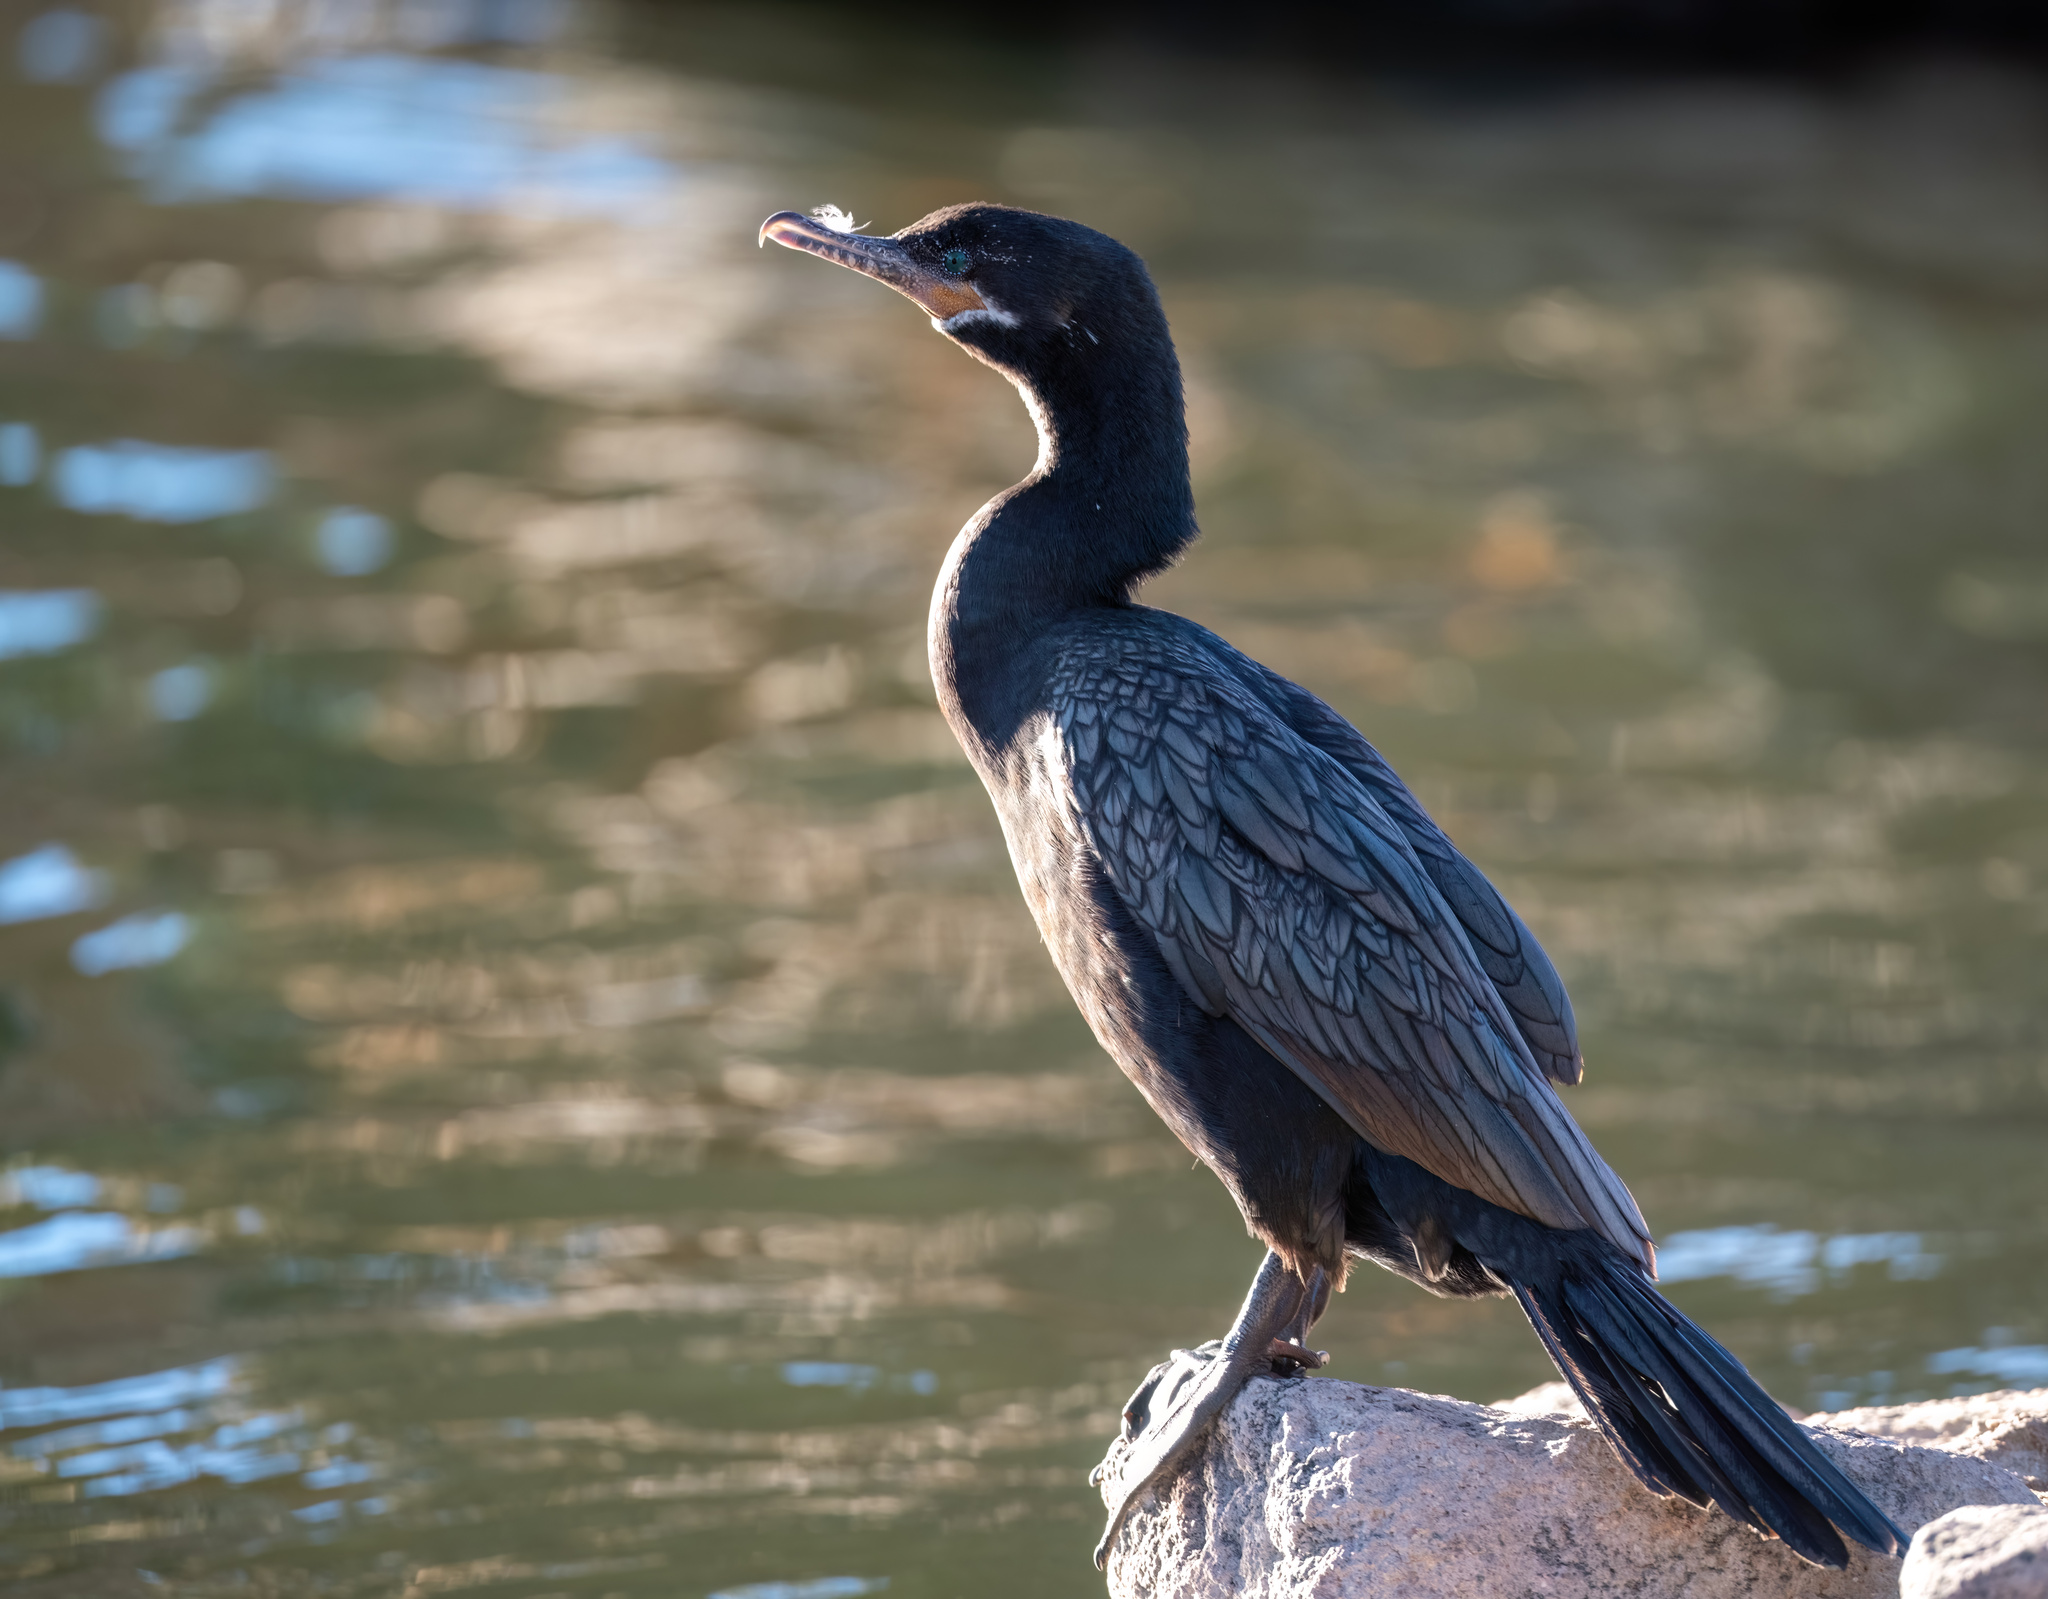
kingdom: Animalia
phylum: Chordata
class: Aves
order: Suliformes
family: Phalacrocoracidae
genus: Phalacrocorax
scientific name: Phalacrocorax brasilianus
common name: Neotropic cormorant
